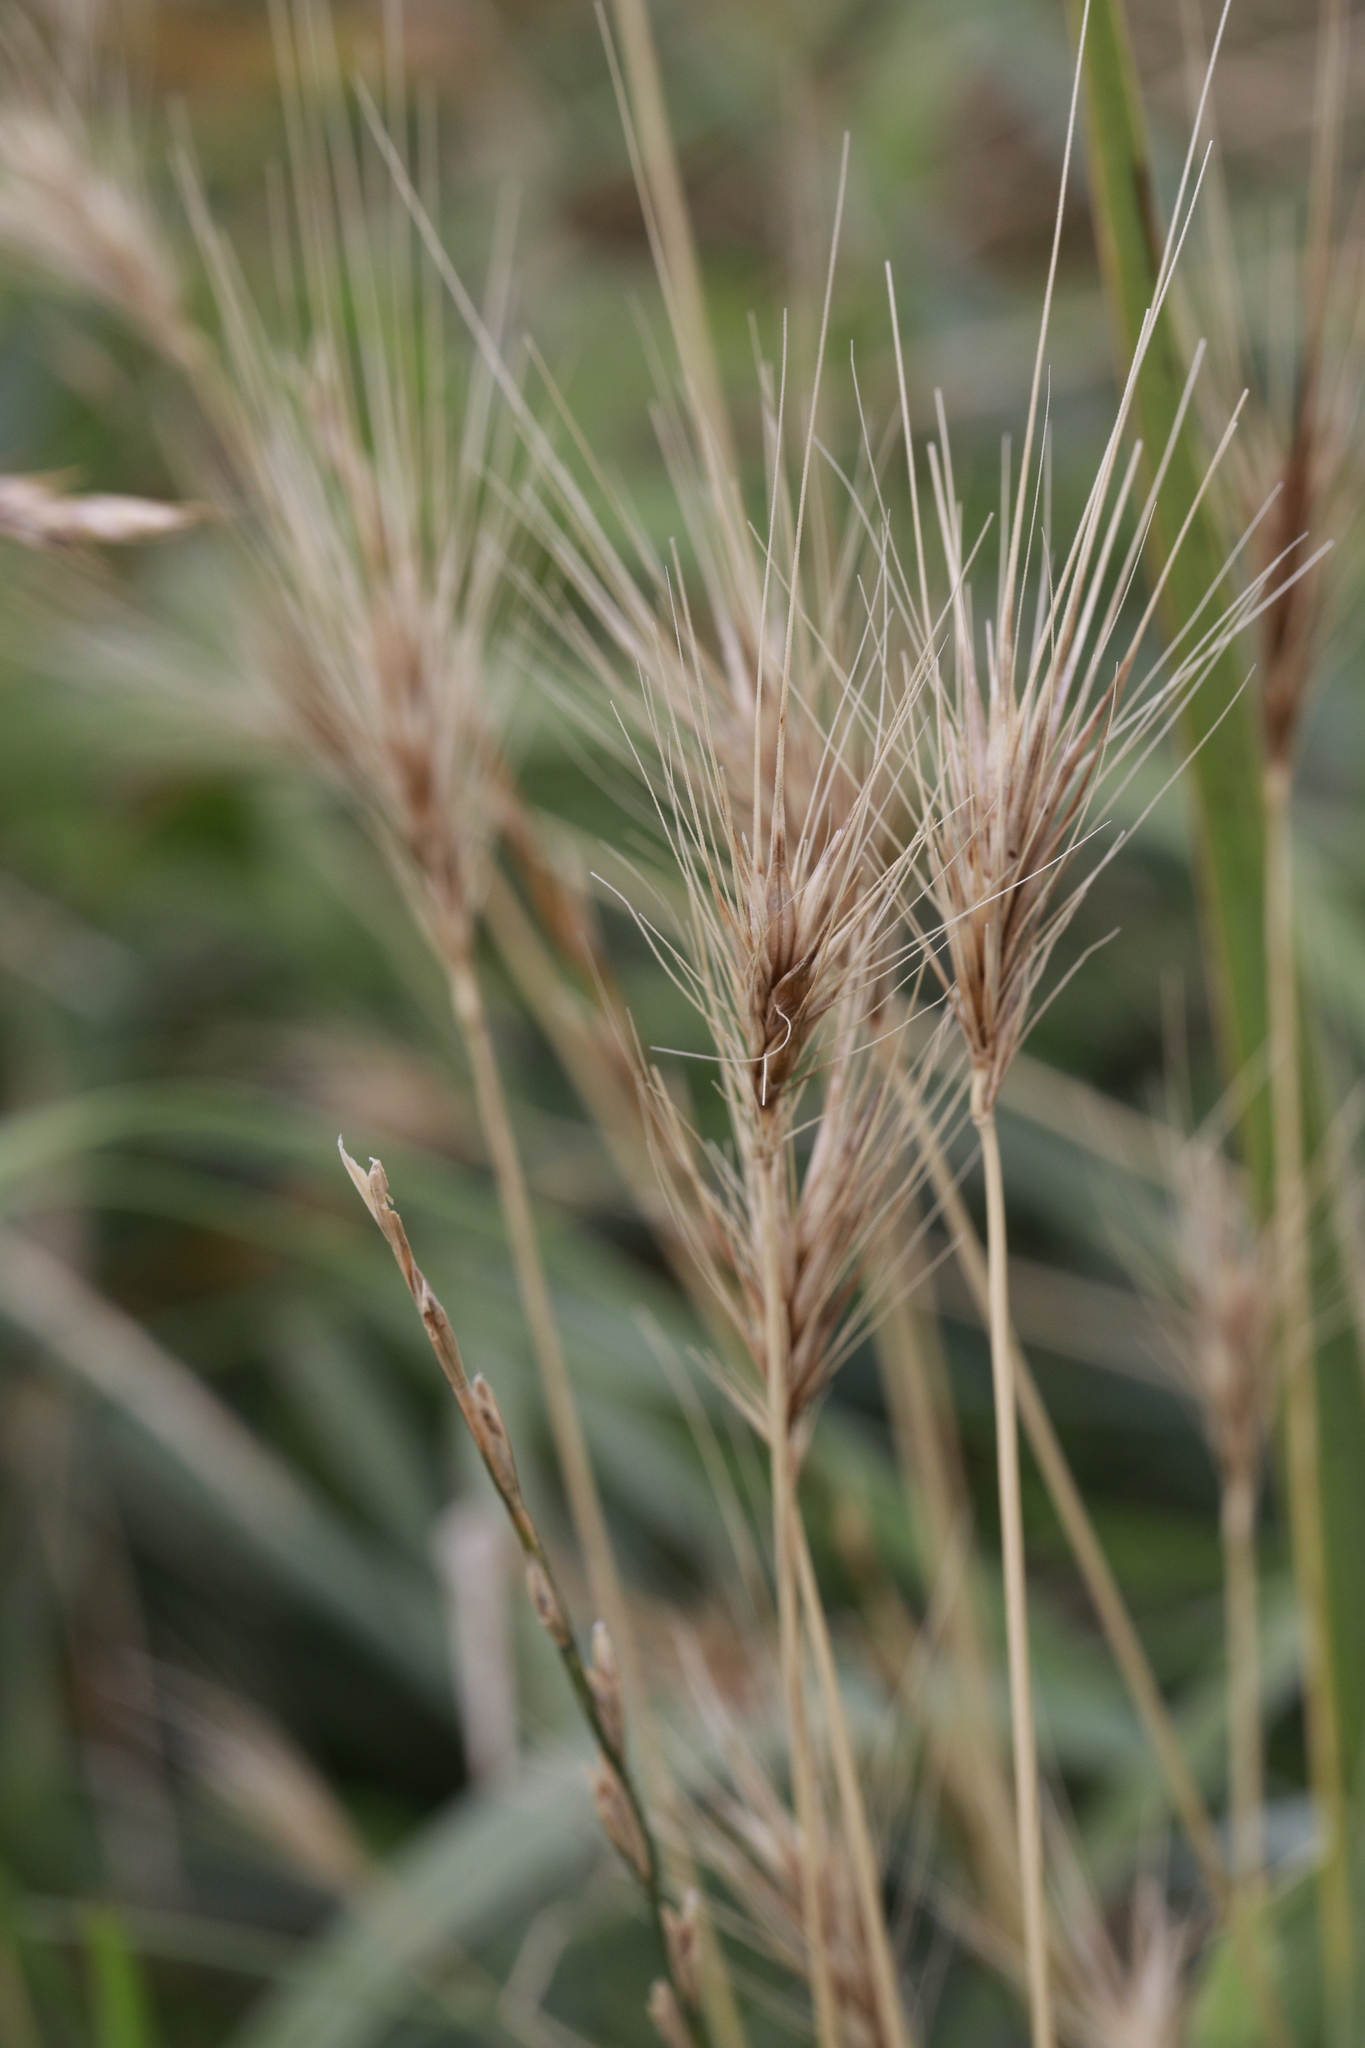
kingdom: Plantae
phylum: Tracheophyta
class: Liliopsida
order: Poales
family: Poaceae
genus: Hordeum
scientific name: Hordeum murinum
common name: Wall barley
